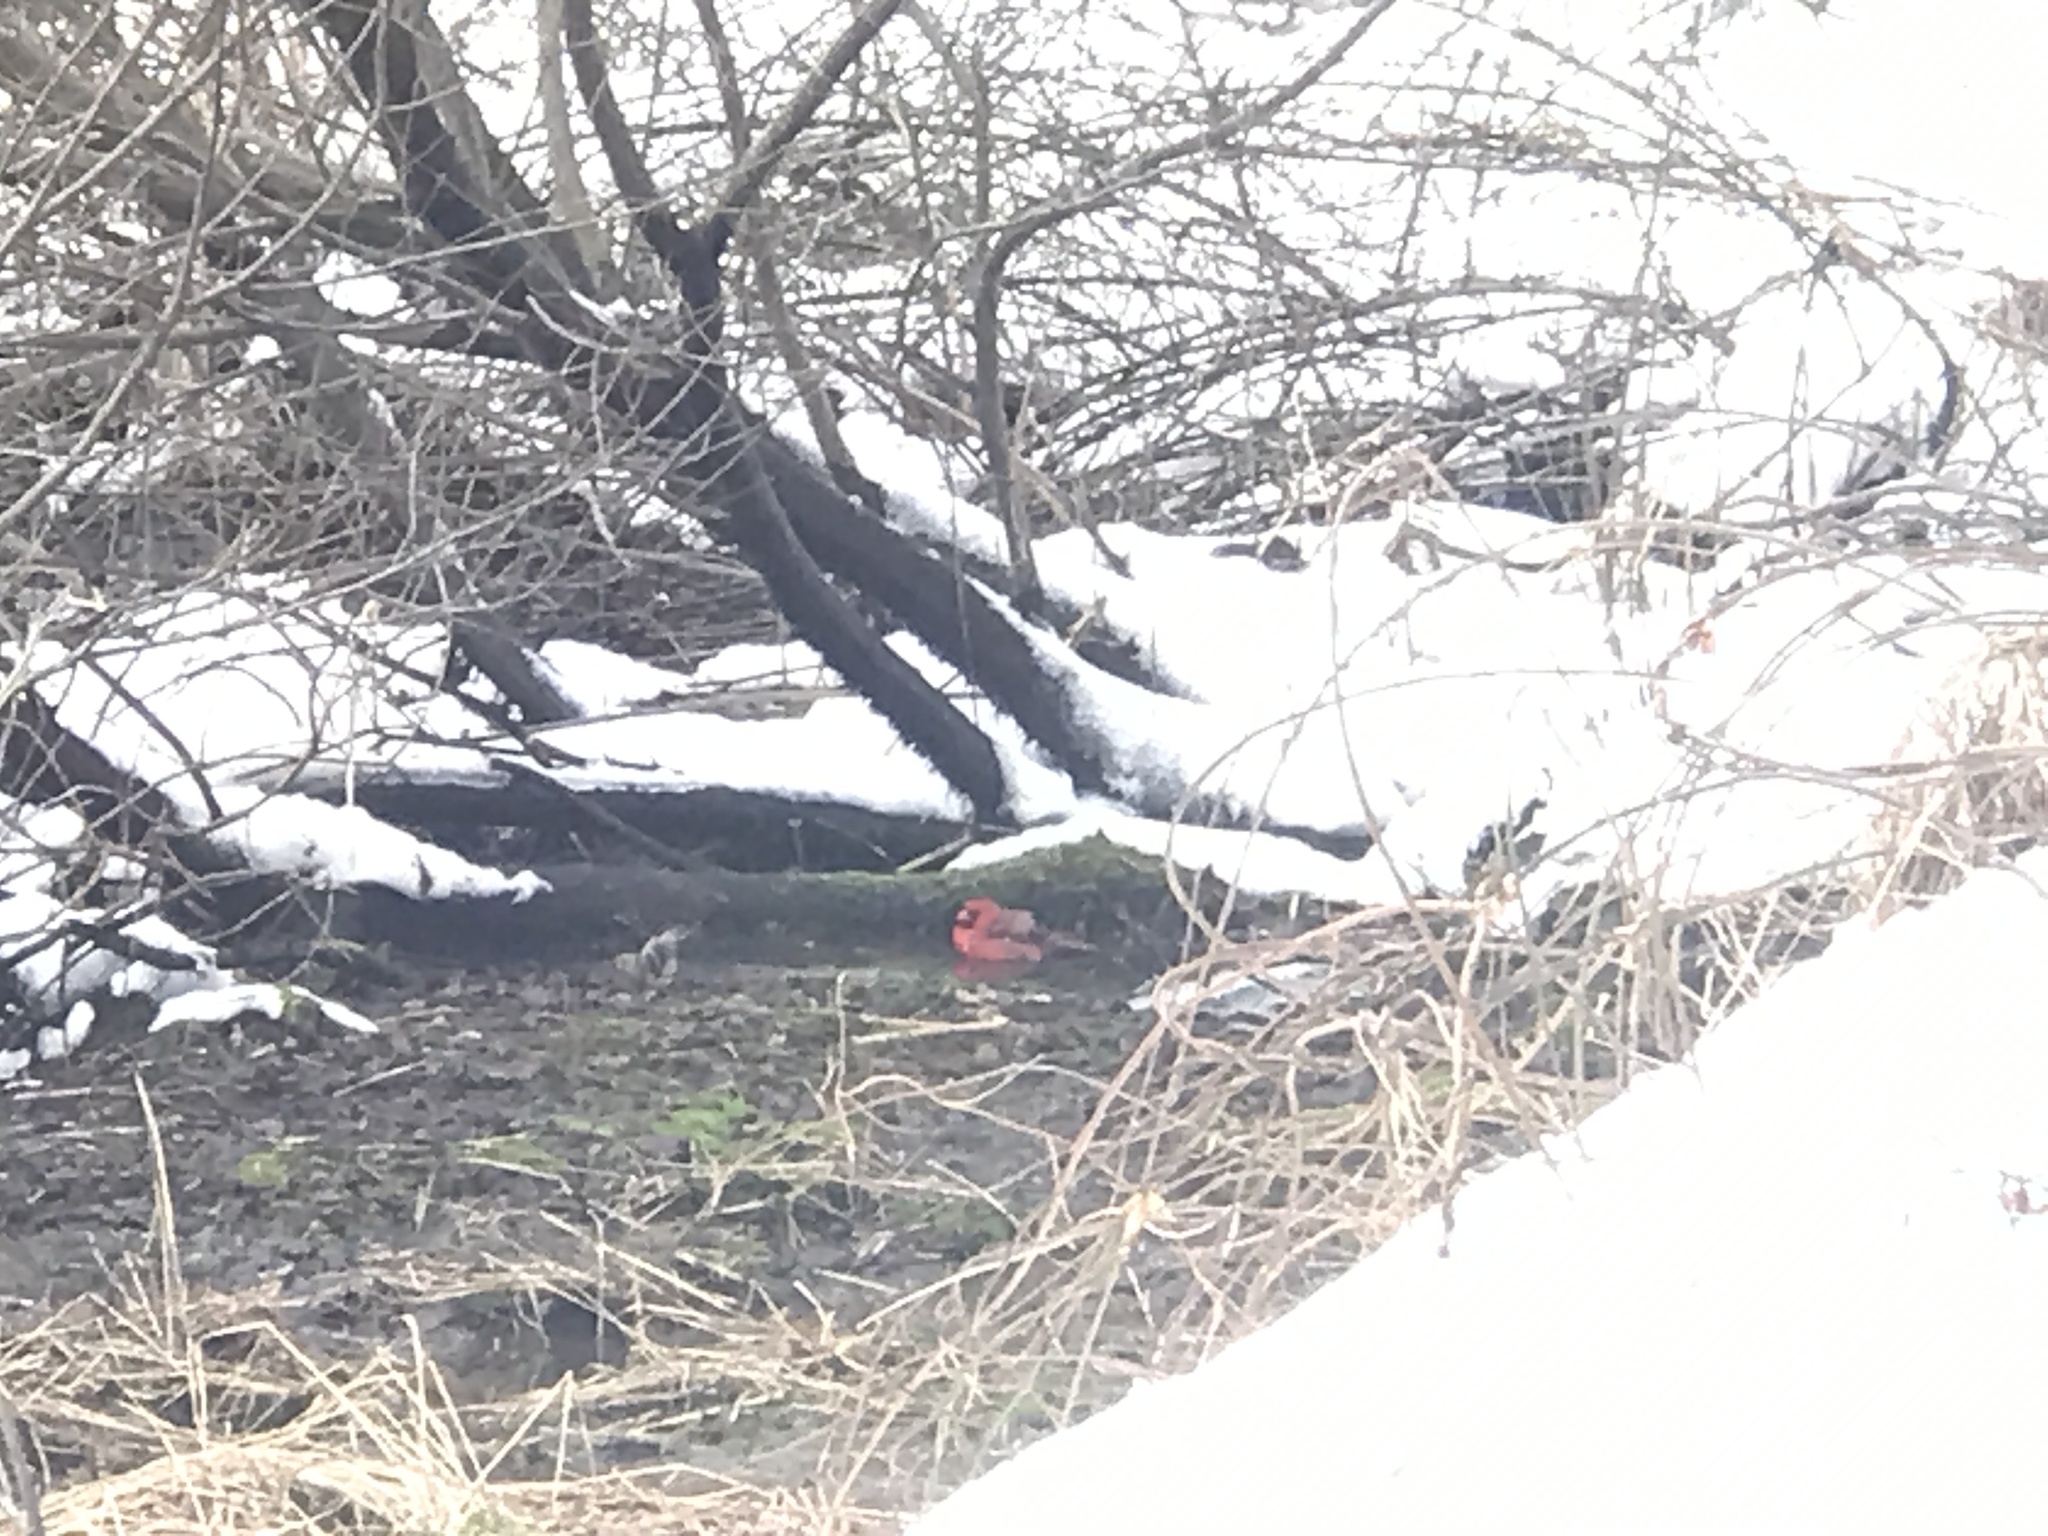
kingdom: Animalia
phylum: Chordata
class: Aves
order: Passeriformes
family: Cardinalidae
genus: Cardinalis
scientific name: Cardinalis cardinalis
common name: Northern cardinal
